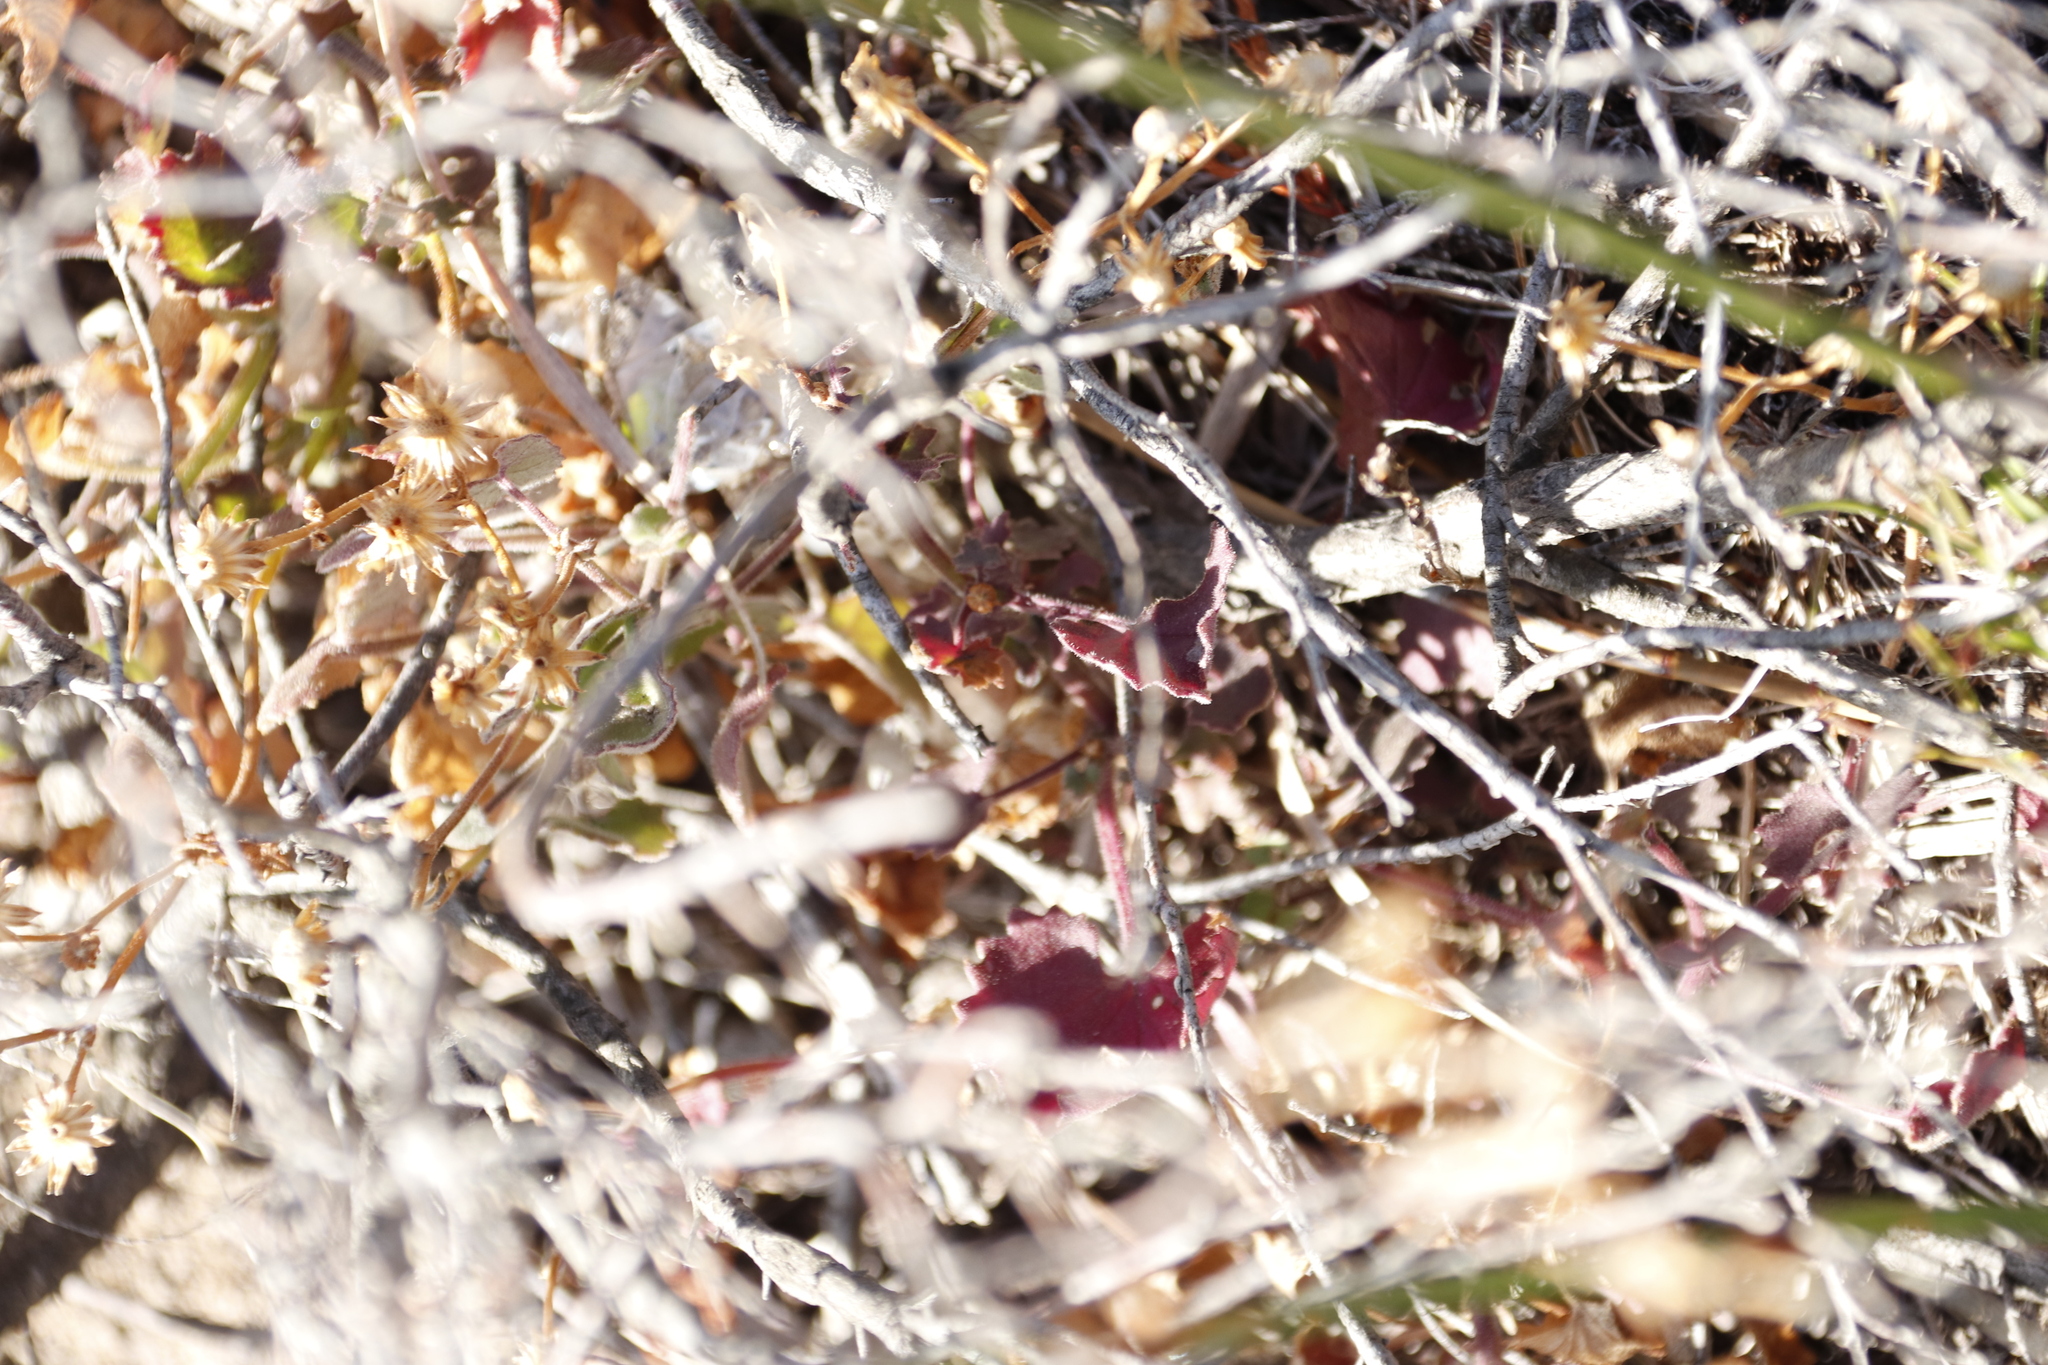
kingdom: Plantae
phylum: Tracheophyta
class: Magnoliopsida
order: Asterales
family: Asteraceae
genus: Cineraria
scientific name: Cineraria geifolia
